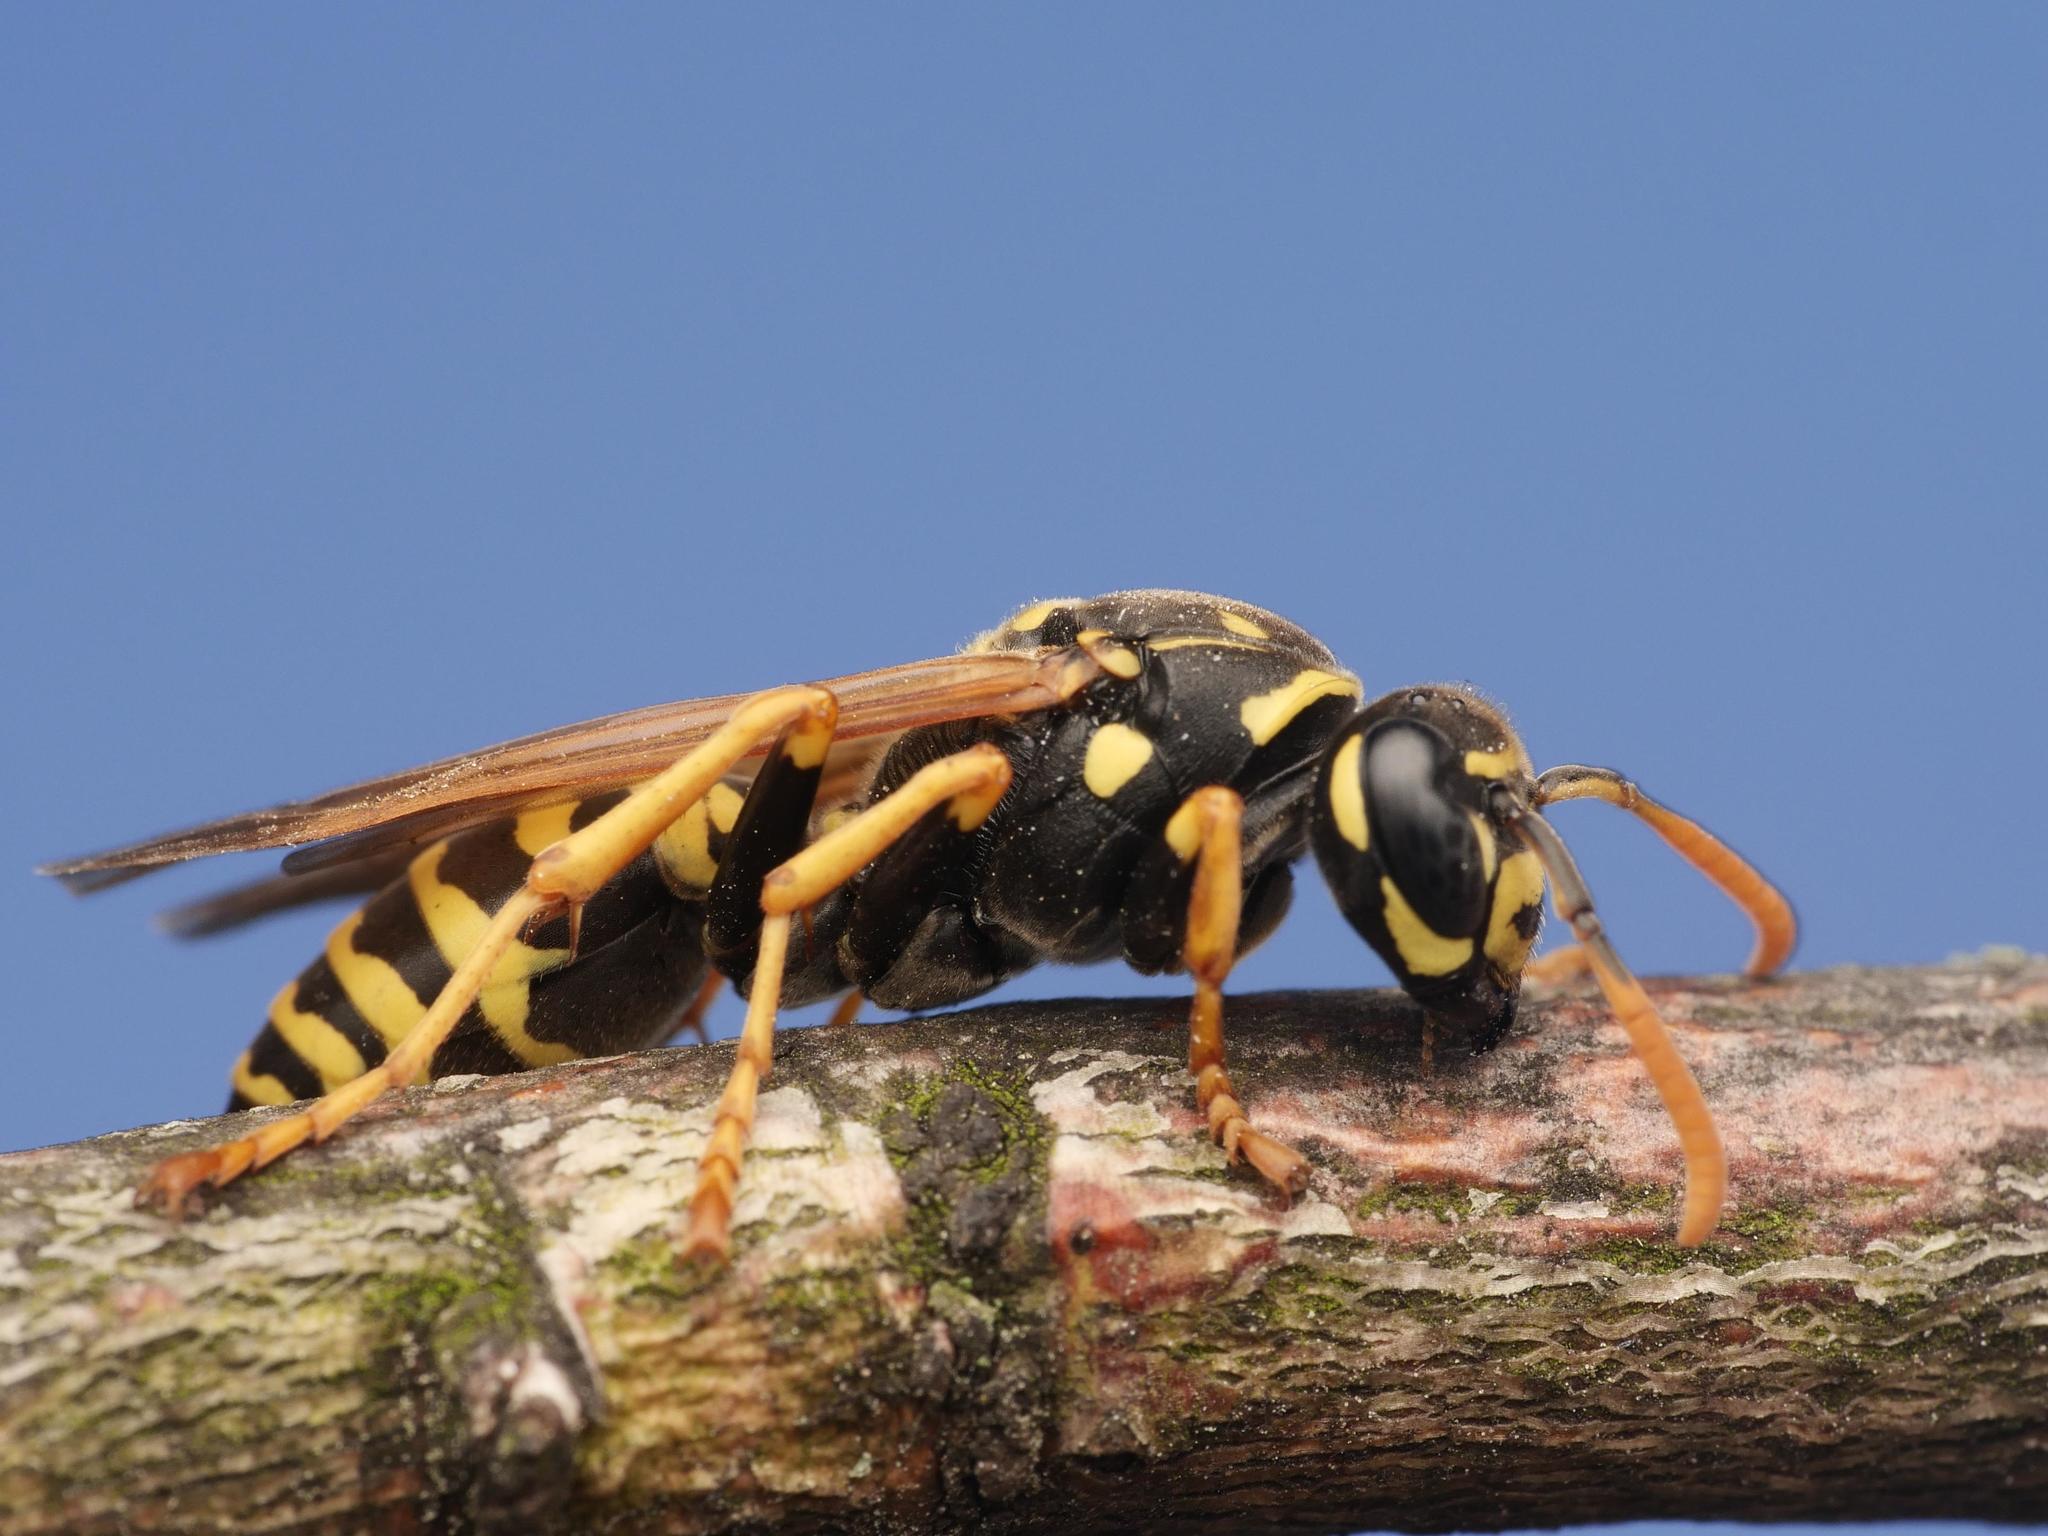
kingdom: Animalia
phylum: Arthropoda
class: Insecta
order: Hymenoptera
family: Eumenidae
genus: Polistes
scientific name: Polistes dominula
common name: Paper wasp
